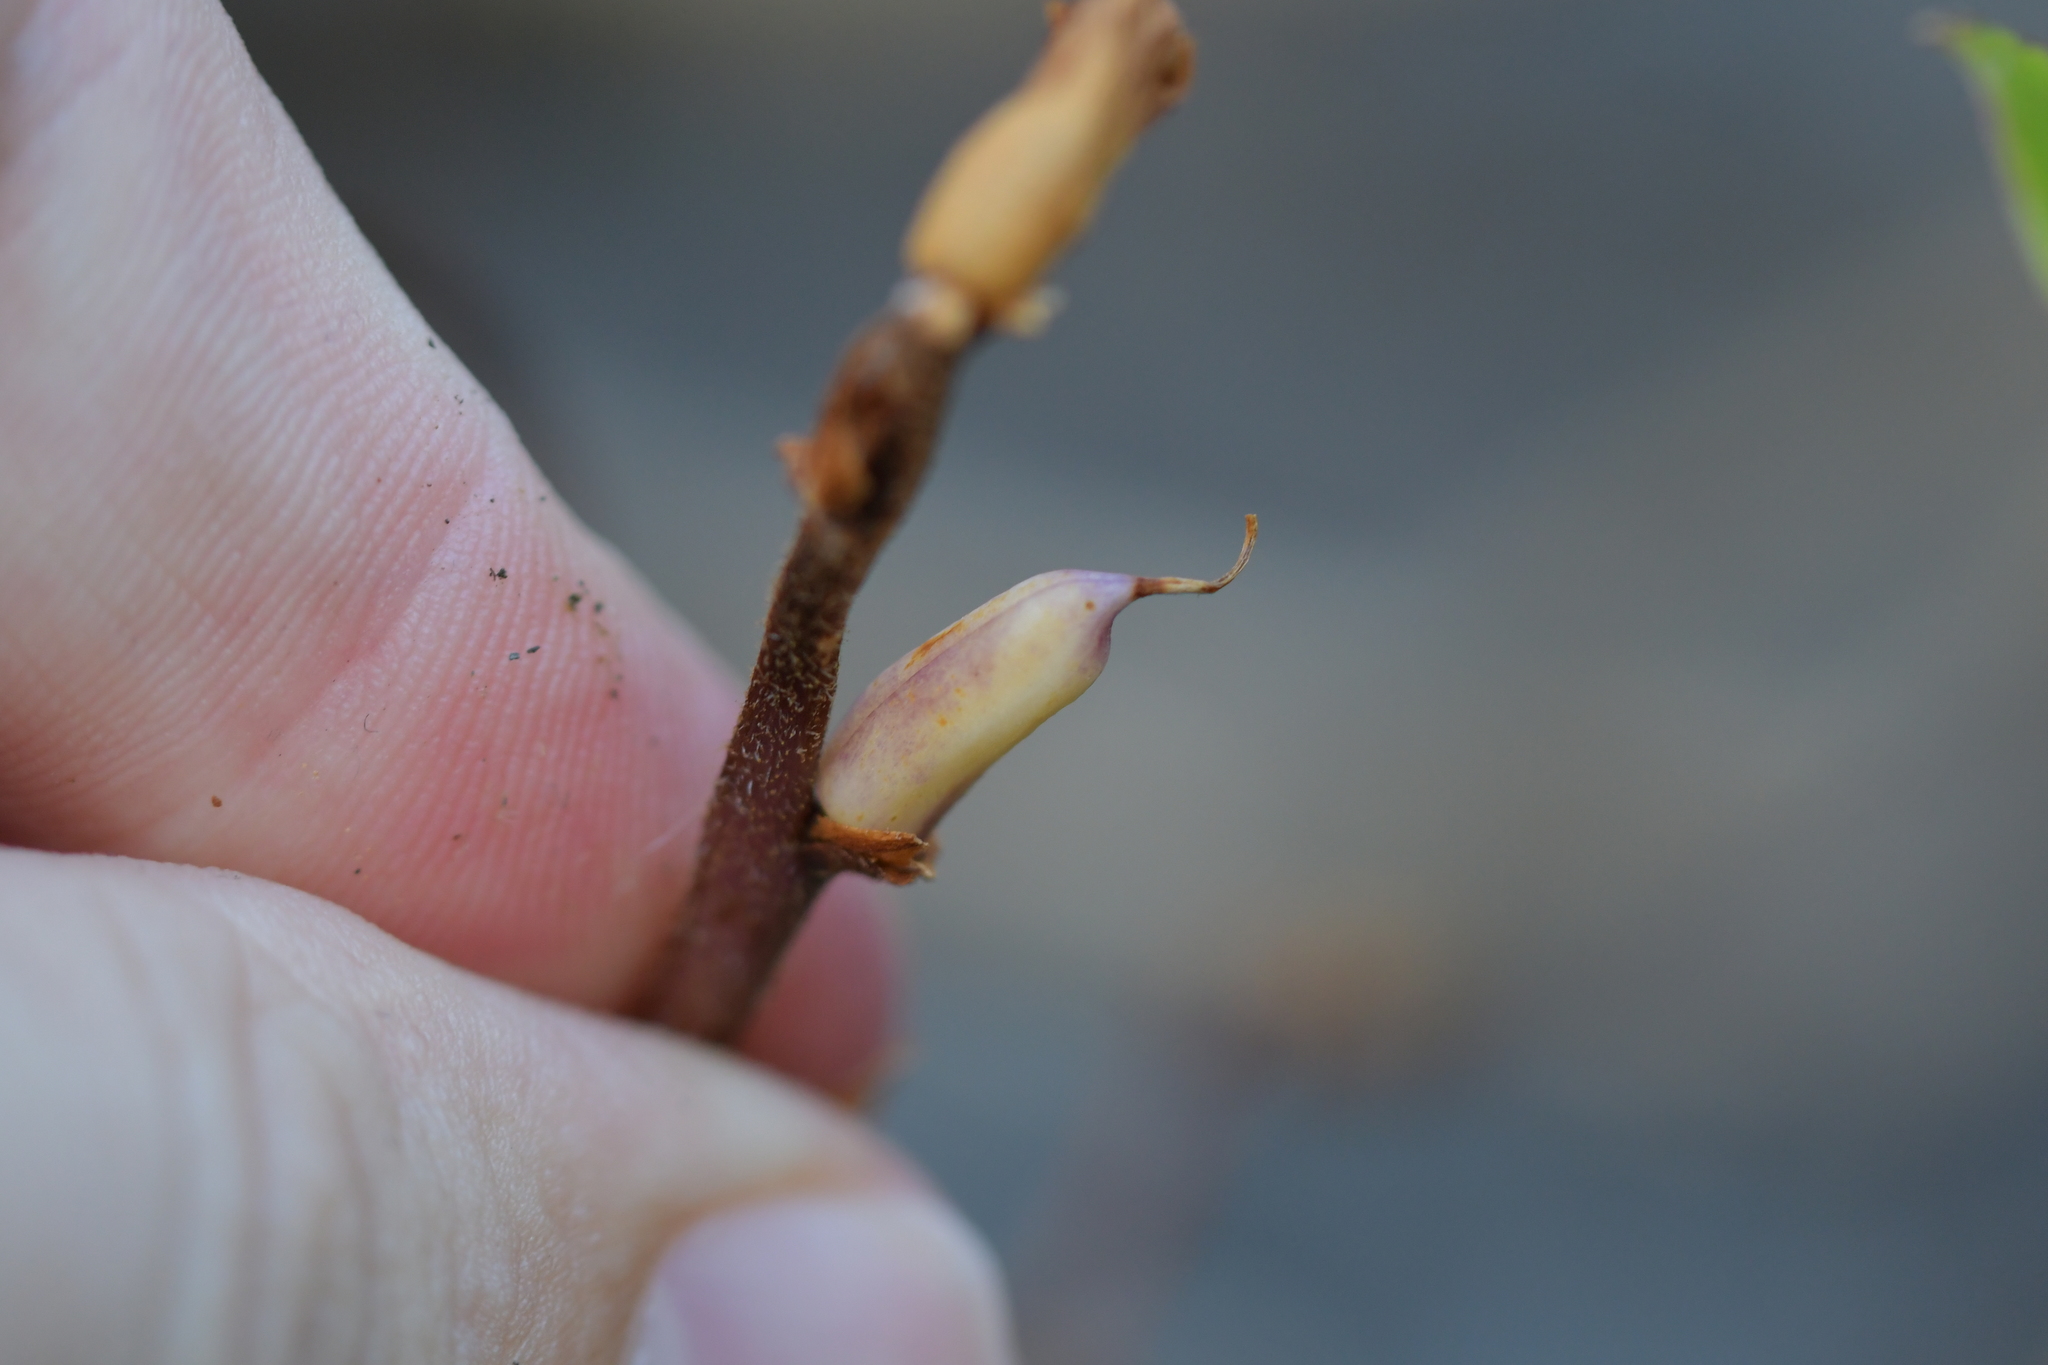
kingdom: Plantae
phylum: Tracheophyta
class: Magnoliopsida
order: Lamiales
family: Orobanchaceae
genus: Orobanche
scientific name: Orobanche minor
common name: Common broomrape
